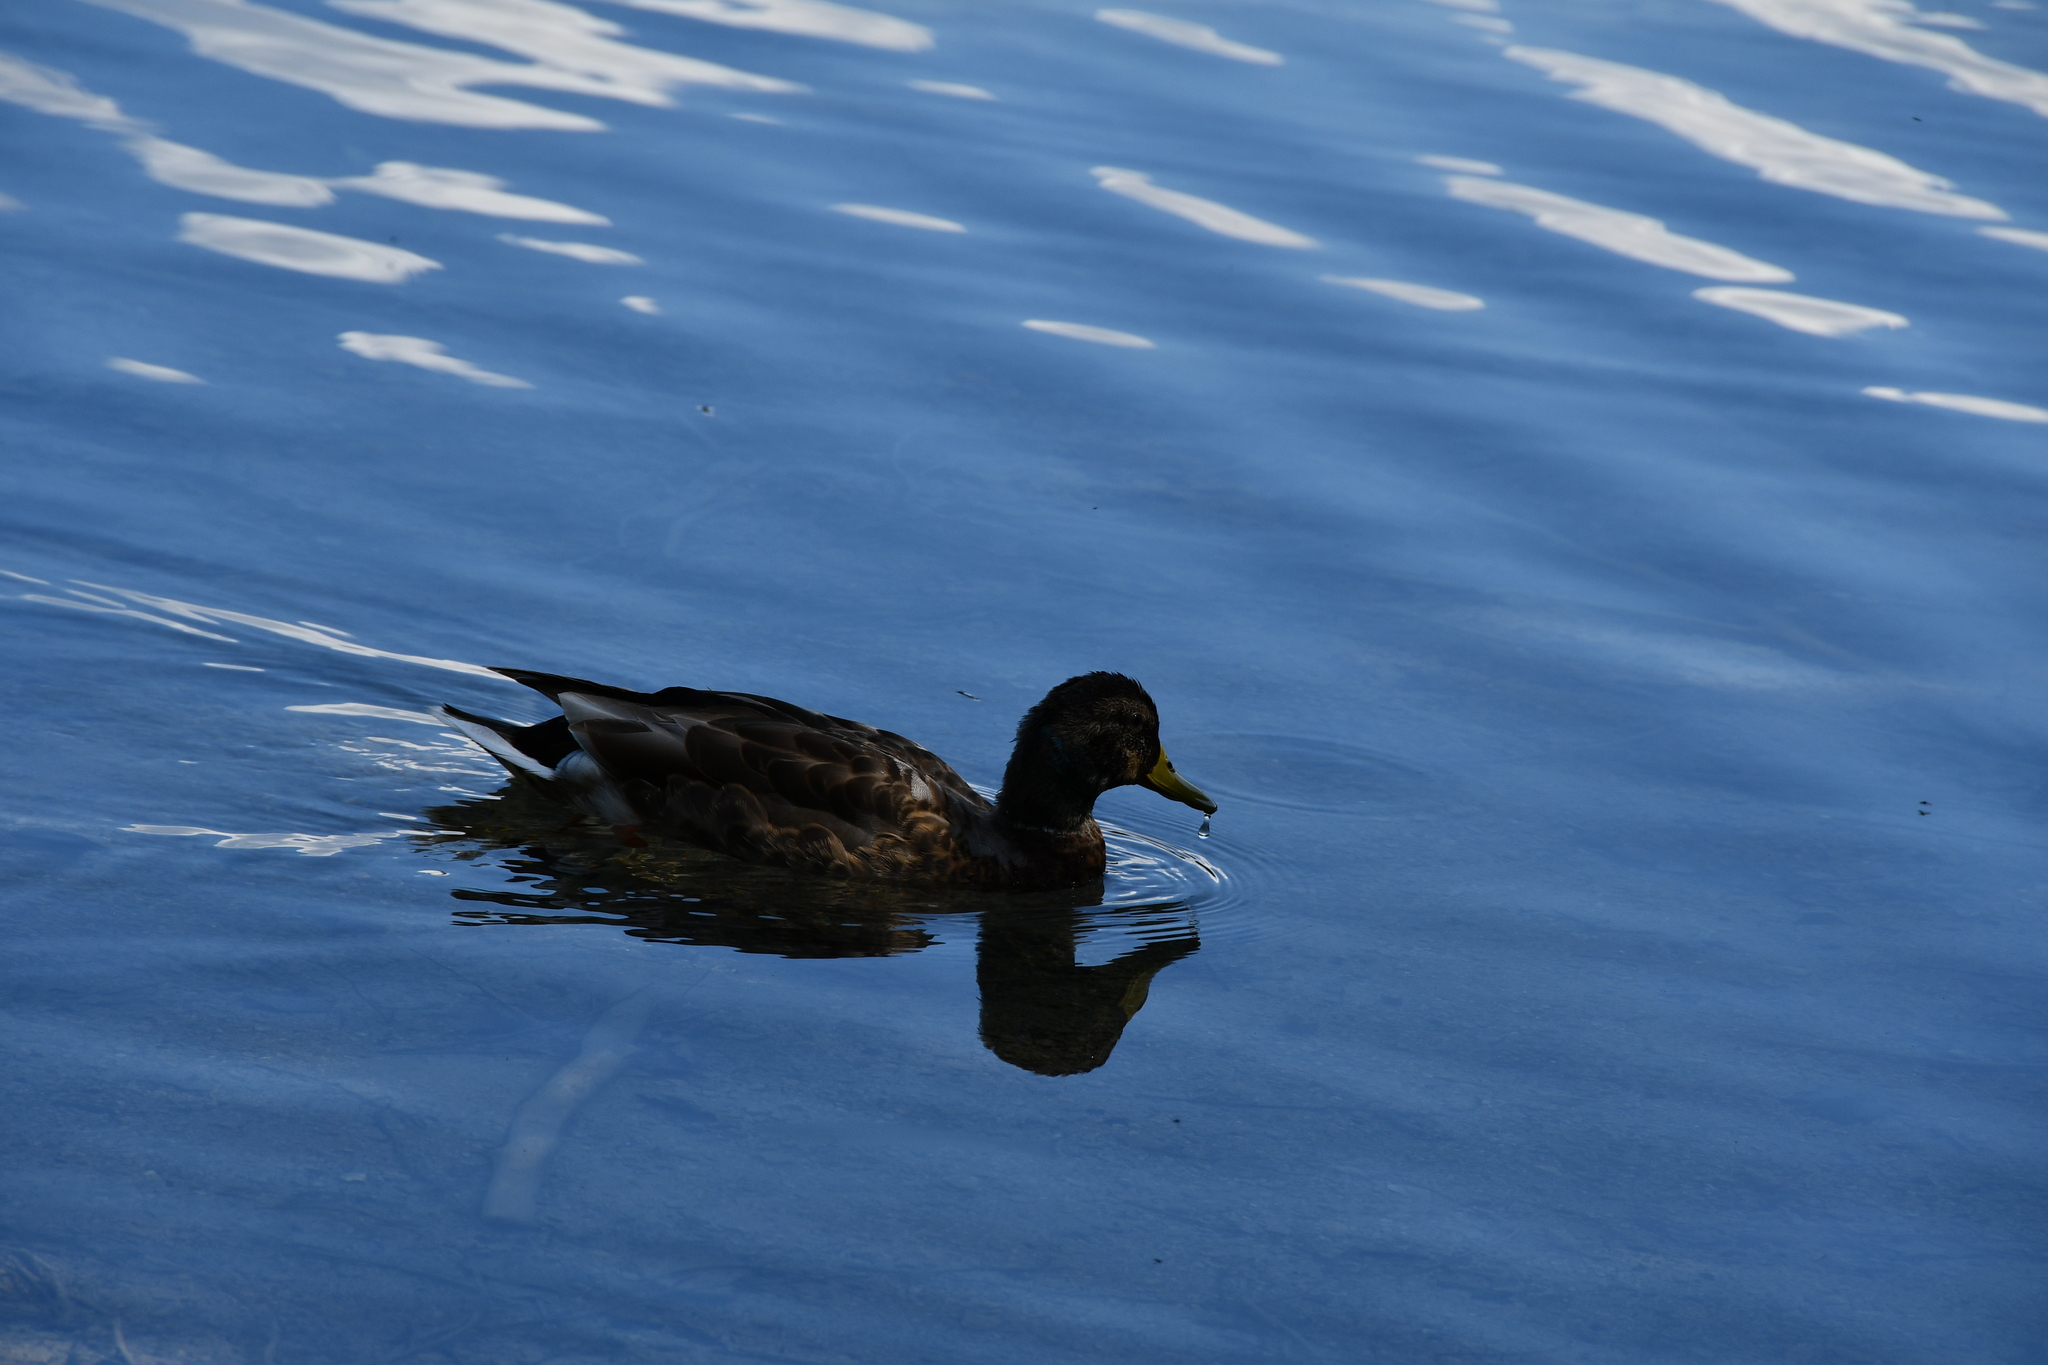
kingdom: Animalia
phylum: Chordata
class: Aves
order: Anseriformes
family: Anatidae
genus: Anas
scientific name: Anas platyrhynchos
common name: Mallard
